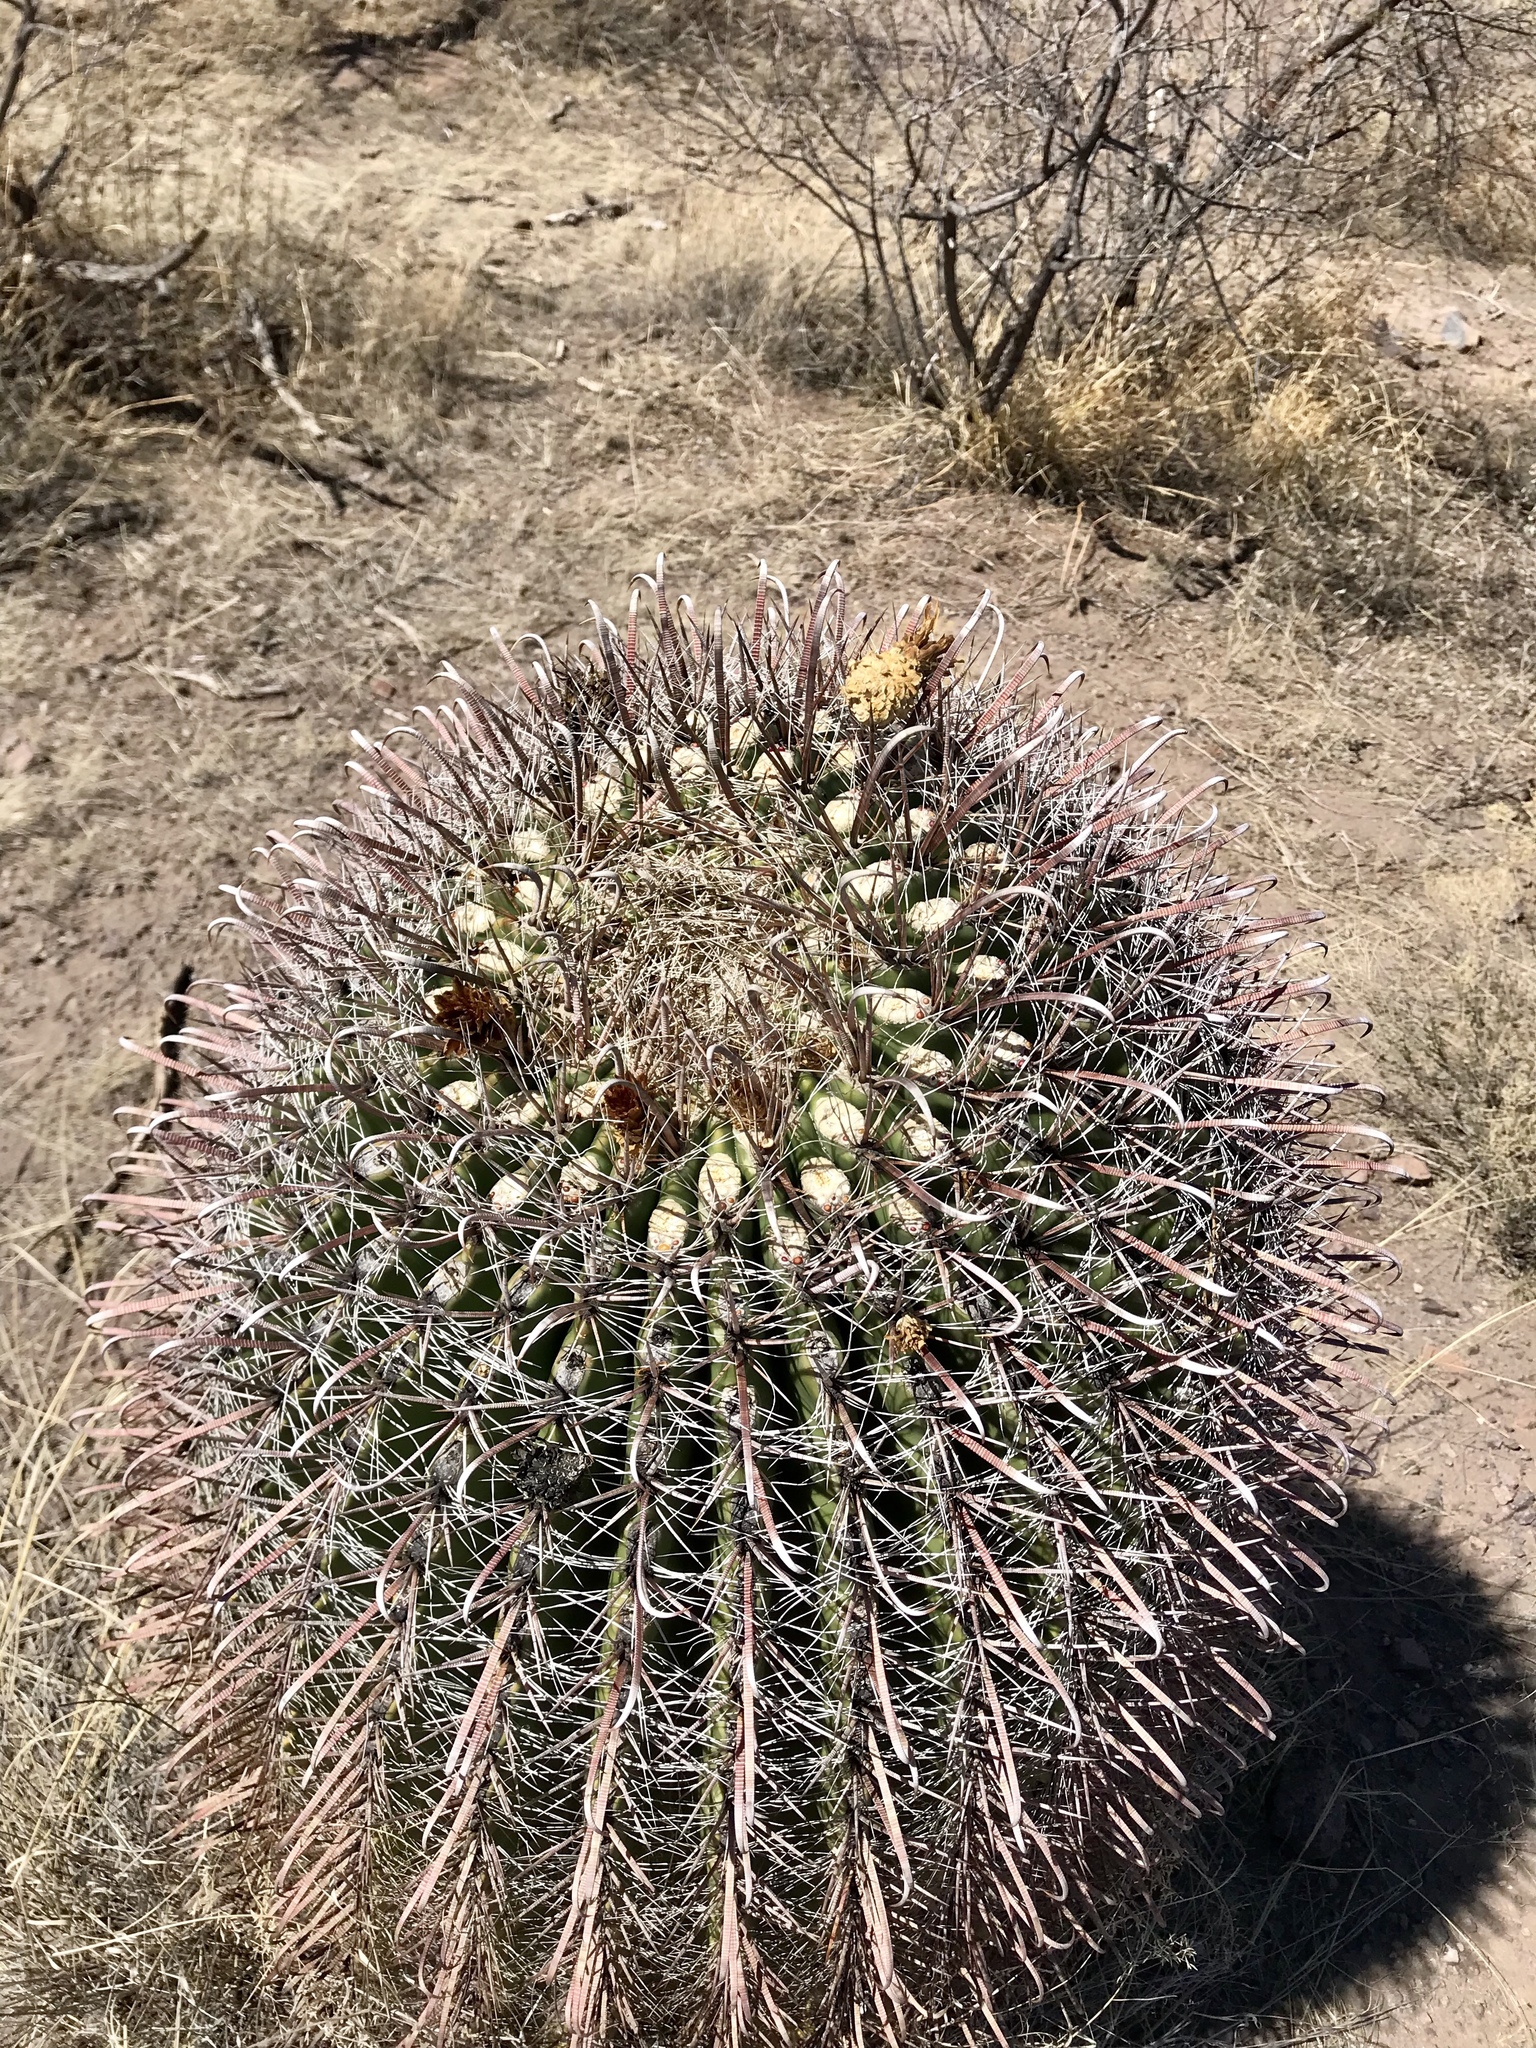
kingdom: Plantae
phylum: Tracheophyta
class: Magnoliopsida
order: Caryophyllales
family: Cactaceae
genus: Ferocactus
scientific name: Ferocactus wislizeni
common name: Candy barrel cactus
